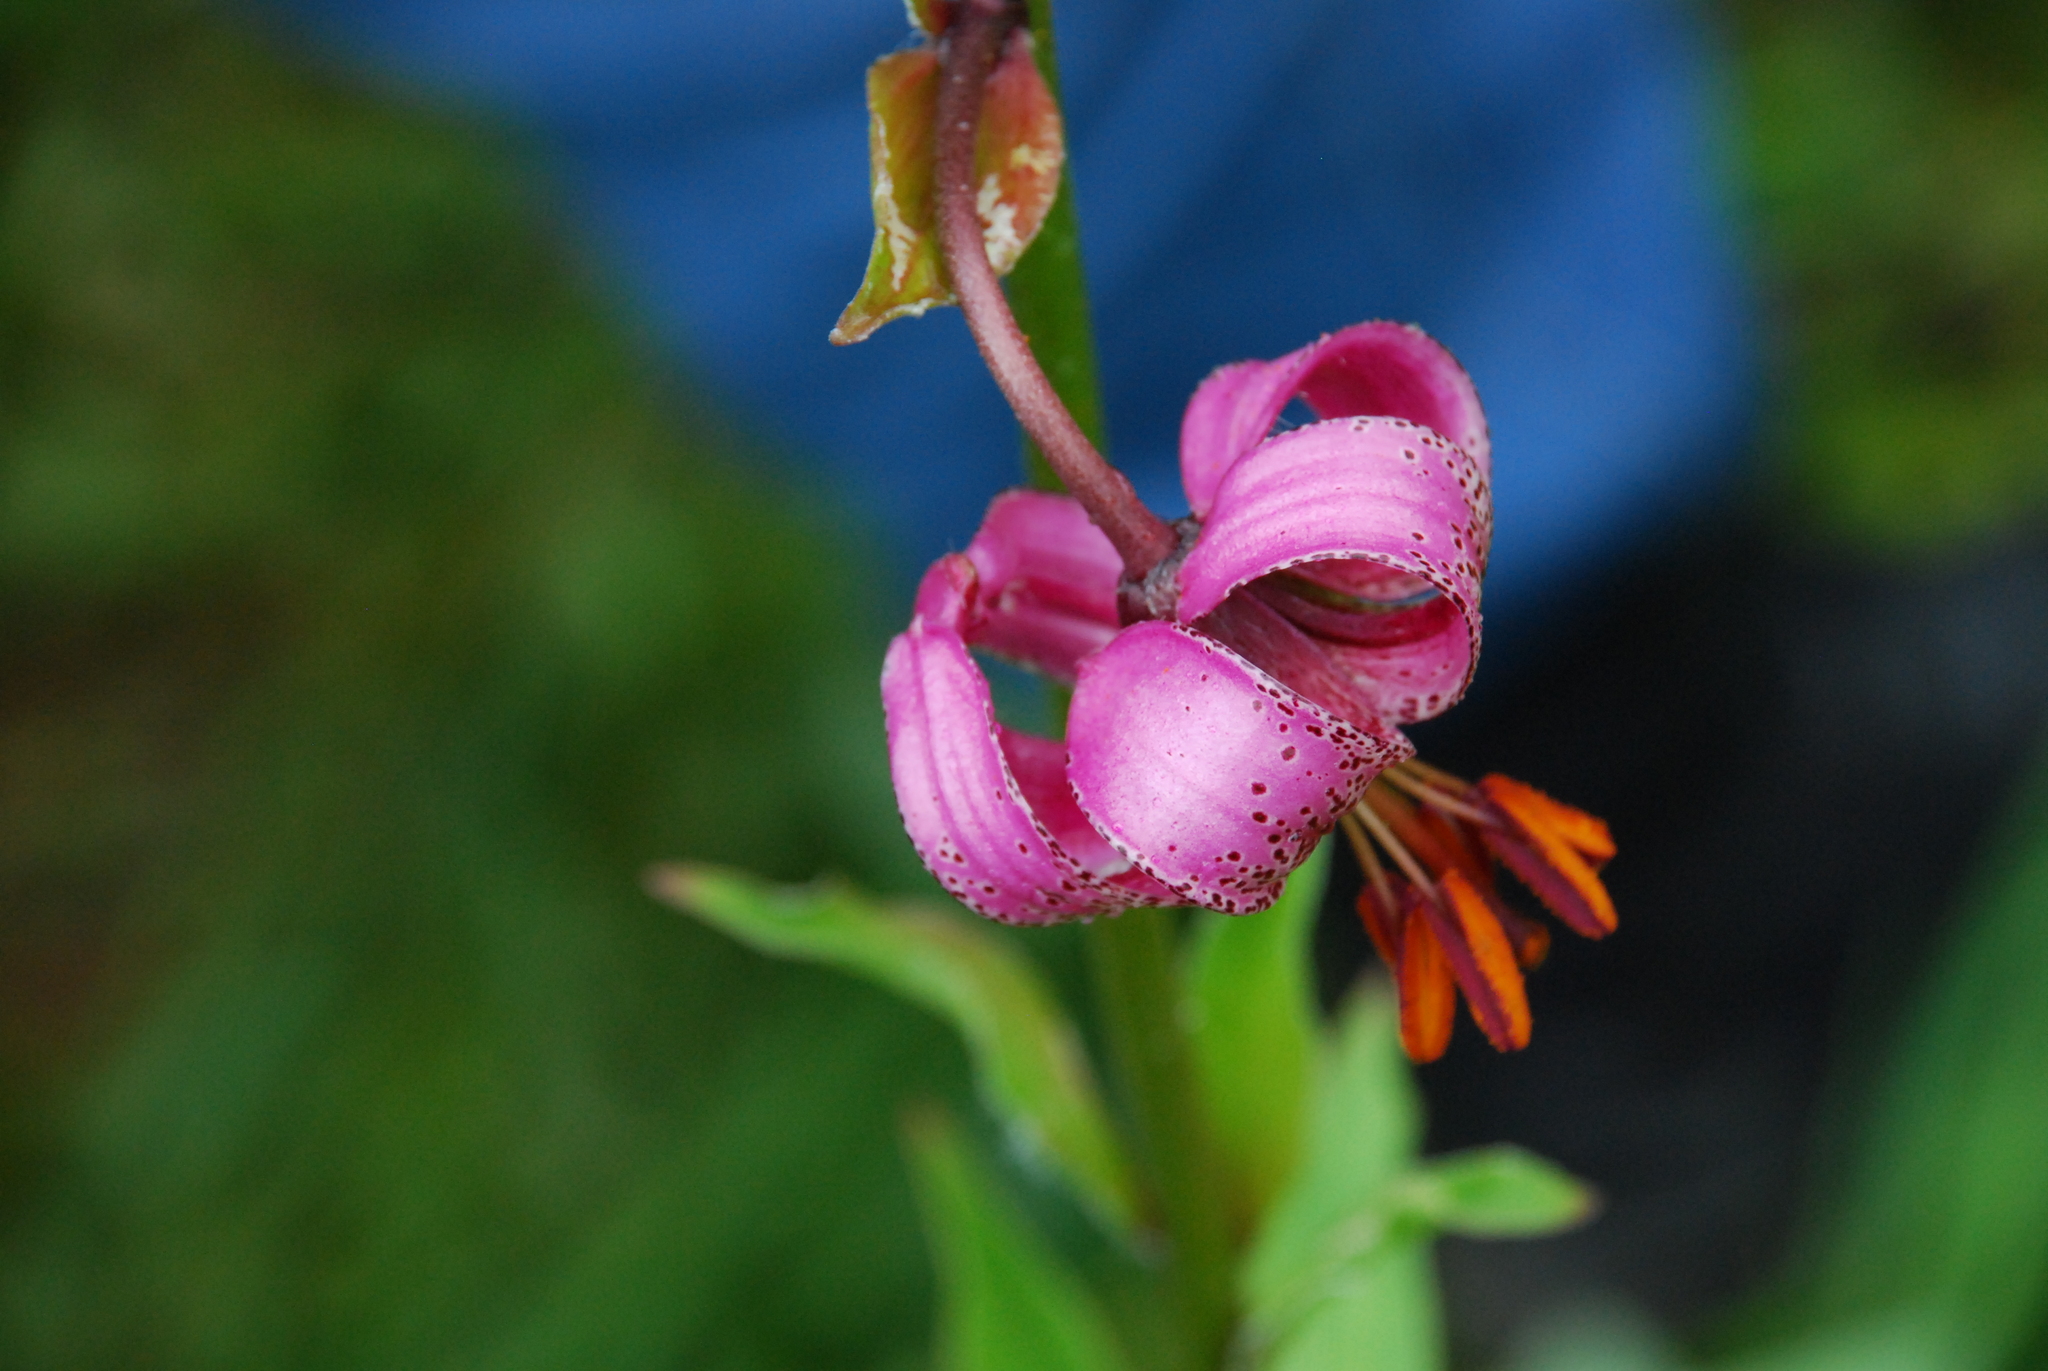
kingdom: Plantae
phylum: Tracheophyta
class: Liliopsida
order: Liliales
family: Liliaceae
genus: Lilium
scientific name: Lilium martagon
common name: Martagon lily
